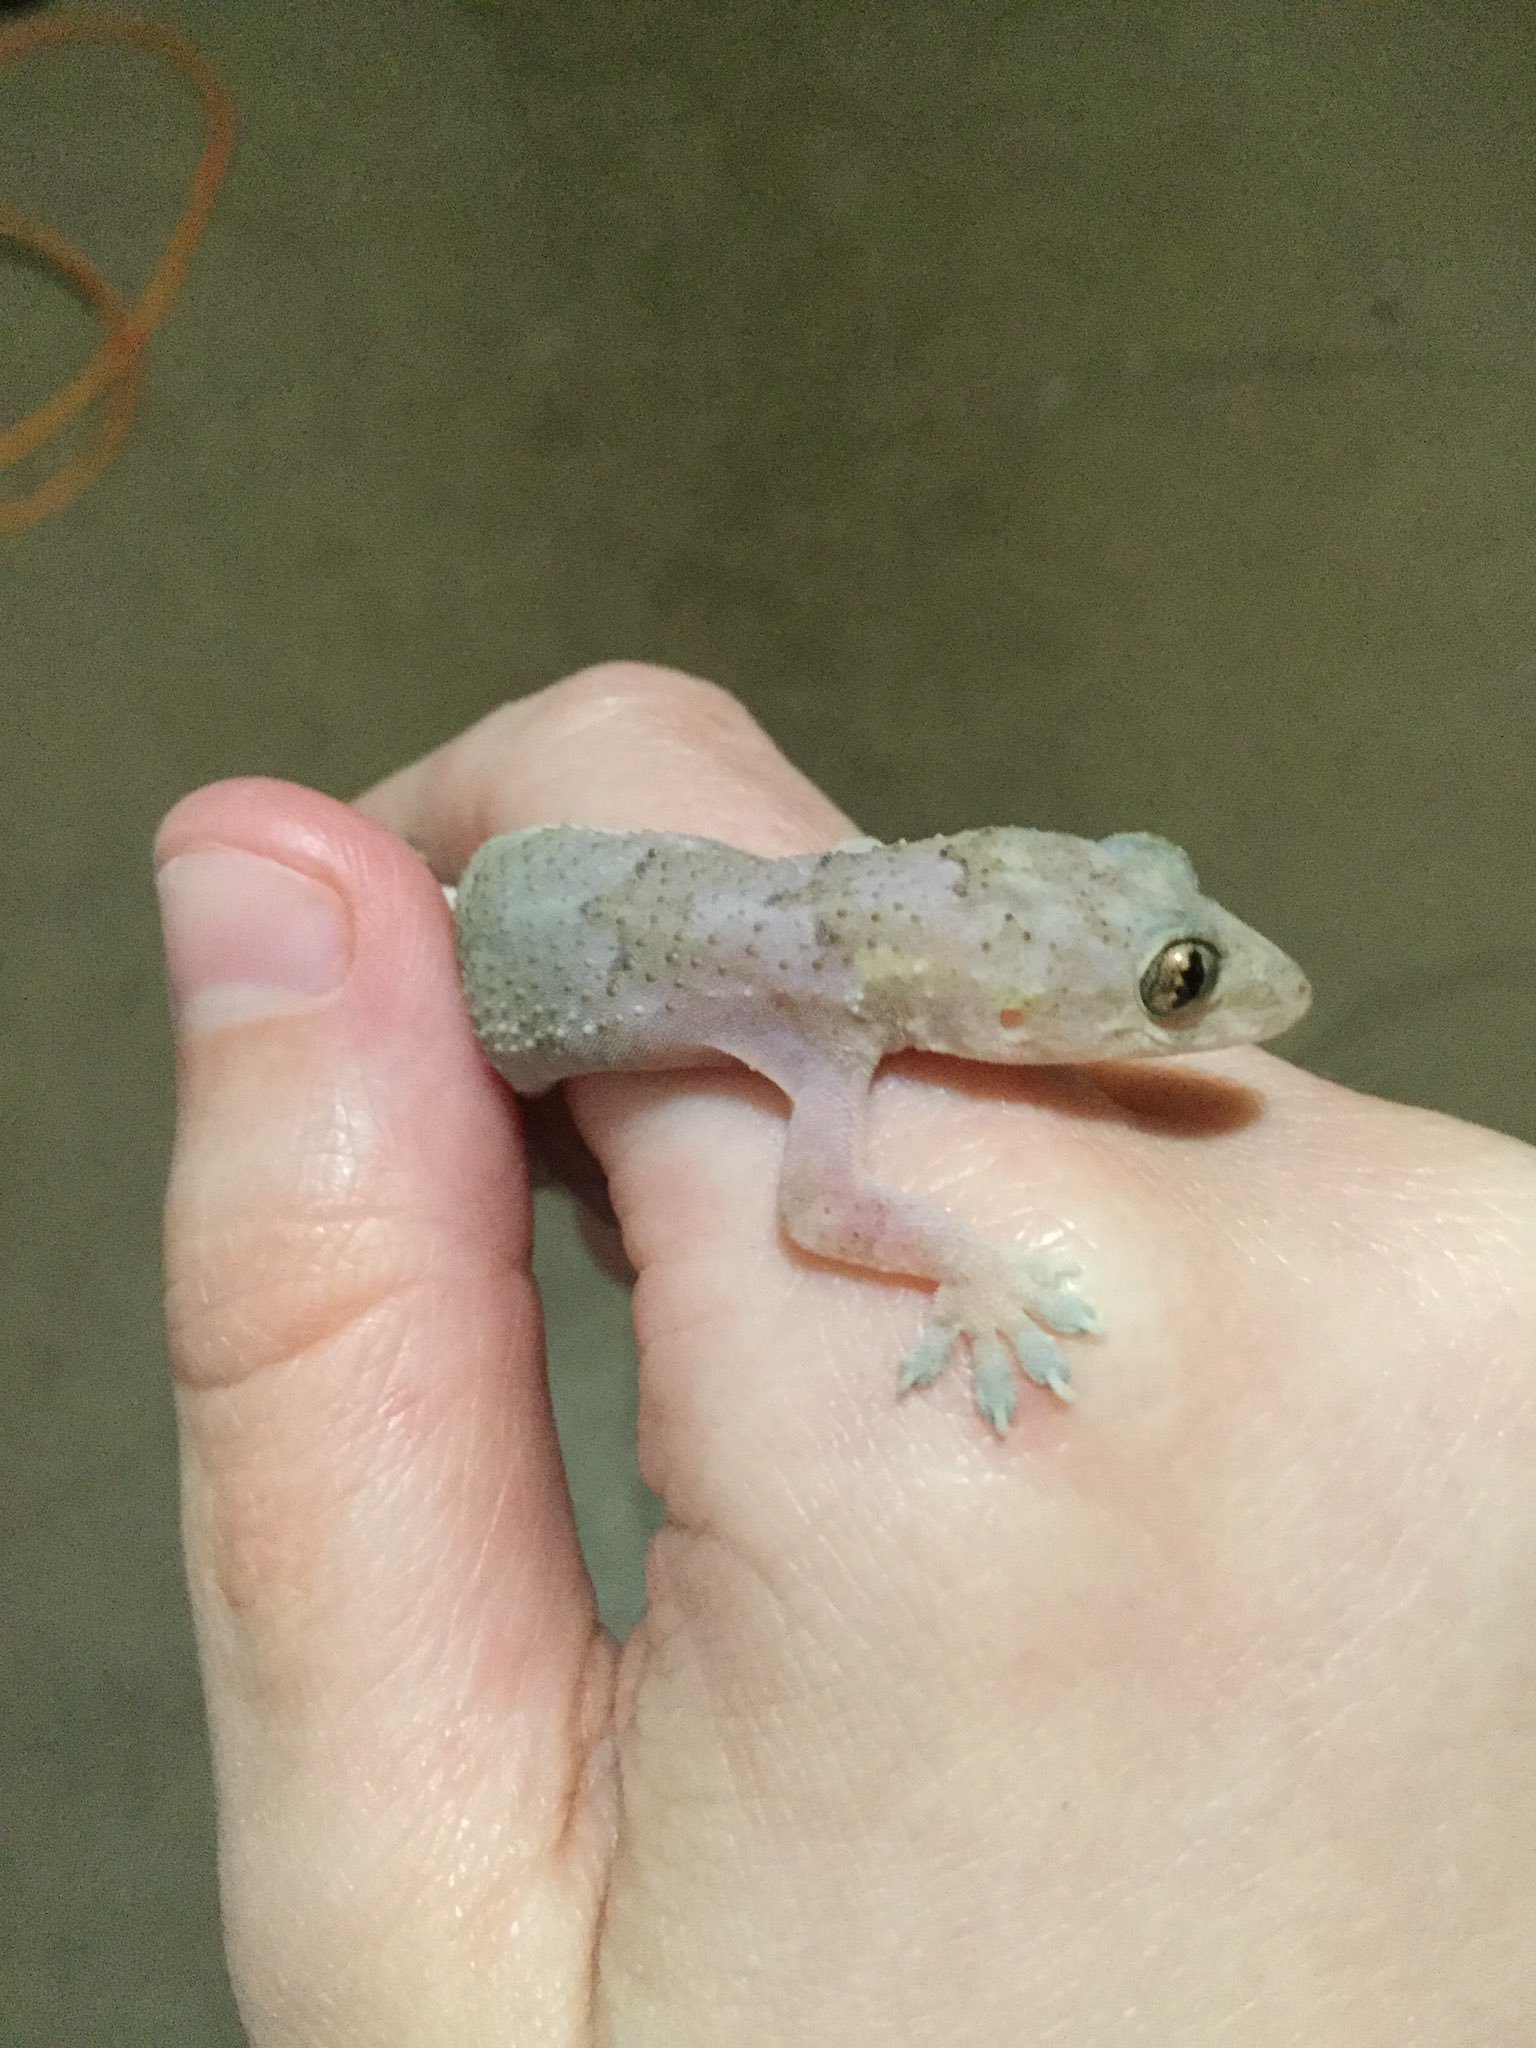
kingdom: Animalia
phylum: Chordata
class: Squamata
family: Gekkonidae
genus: Hemidactylus
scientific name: Hemidactylus mabouia
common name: House gecko
